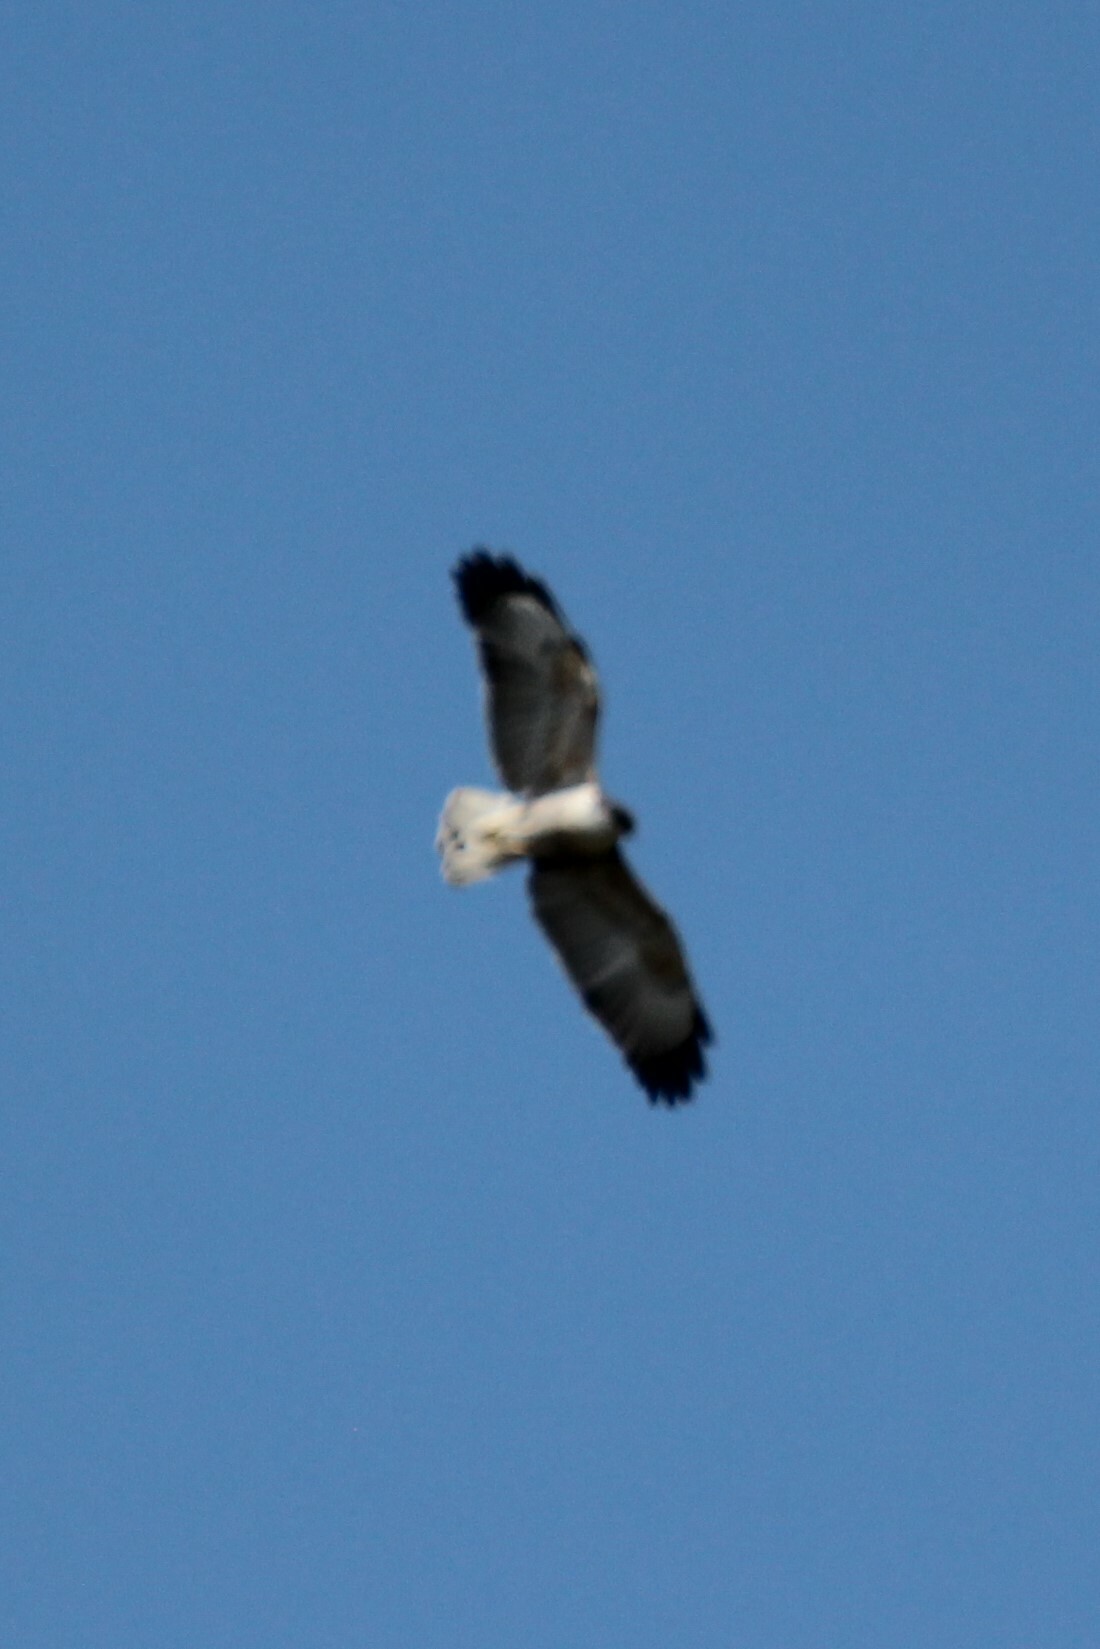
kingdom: Animalia
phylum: Chordata
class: Aves
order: Accipitriformes
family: Accipitridae
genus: Buteo
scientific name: Buteo polyosoma
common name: Variable hawk
